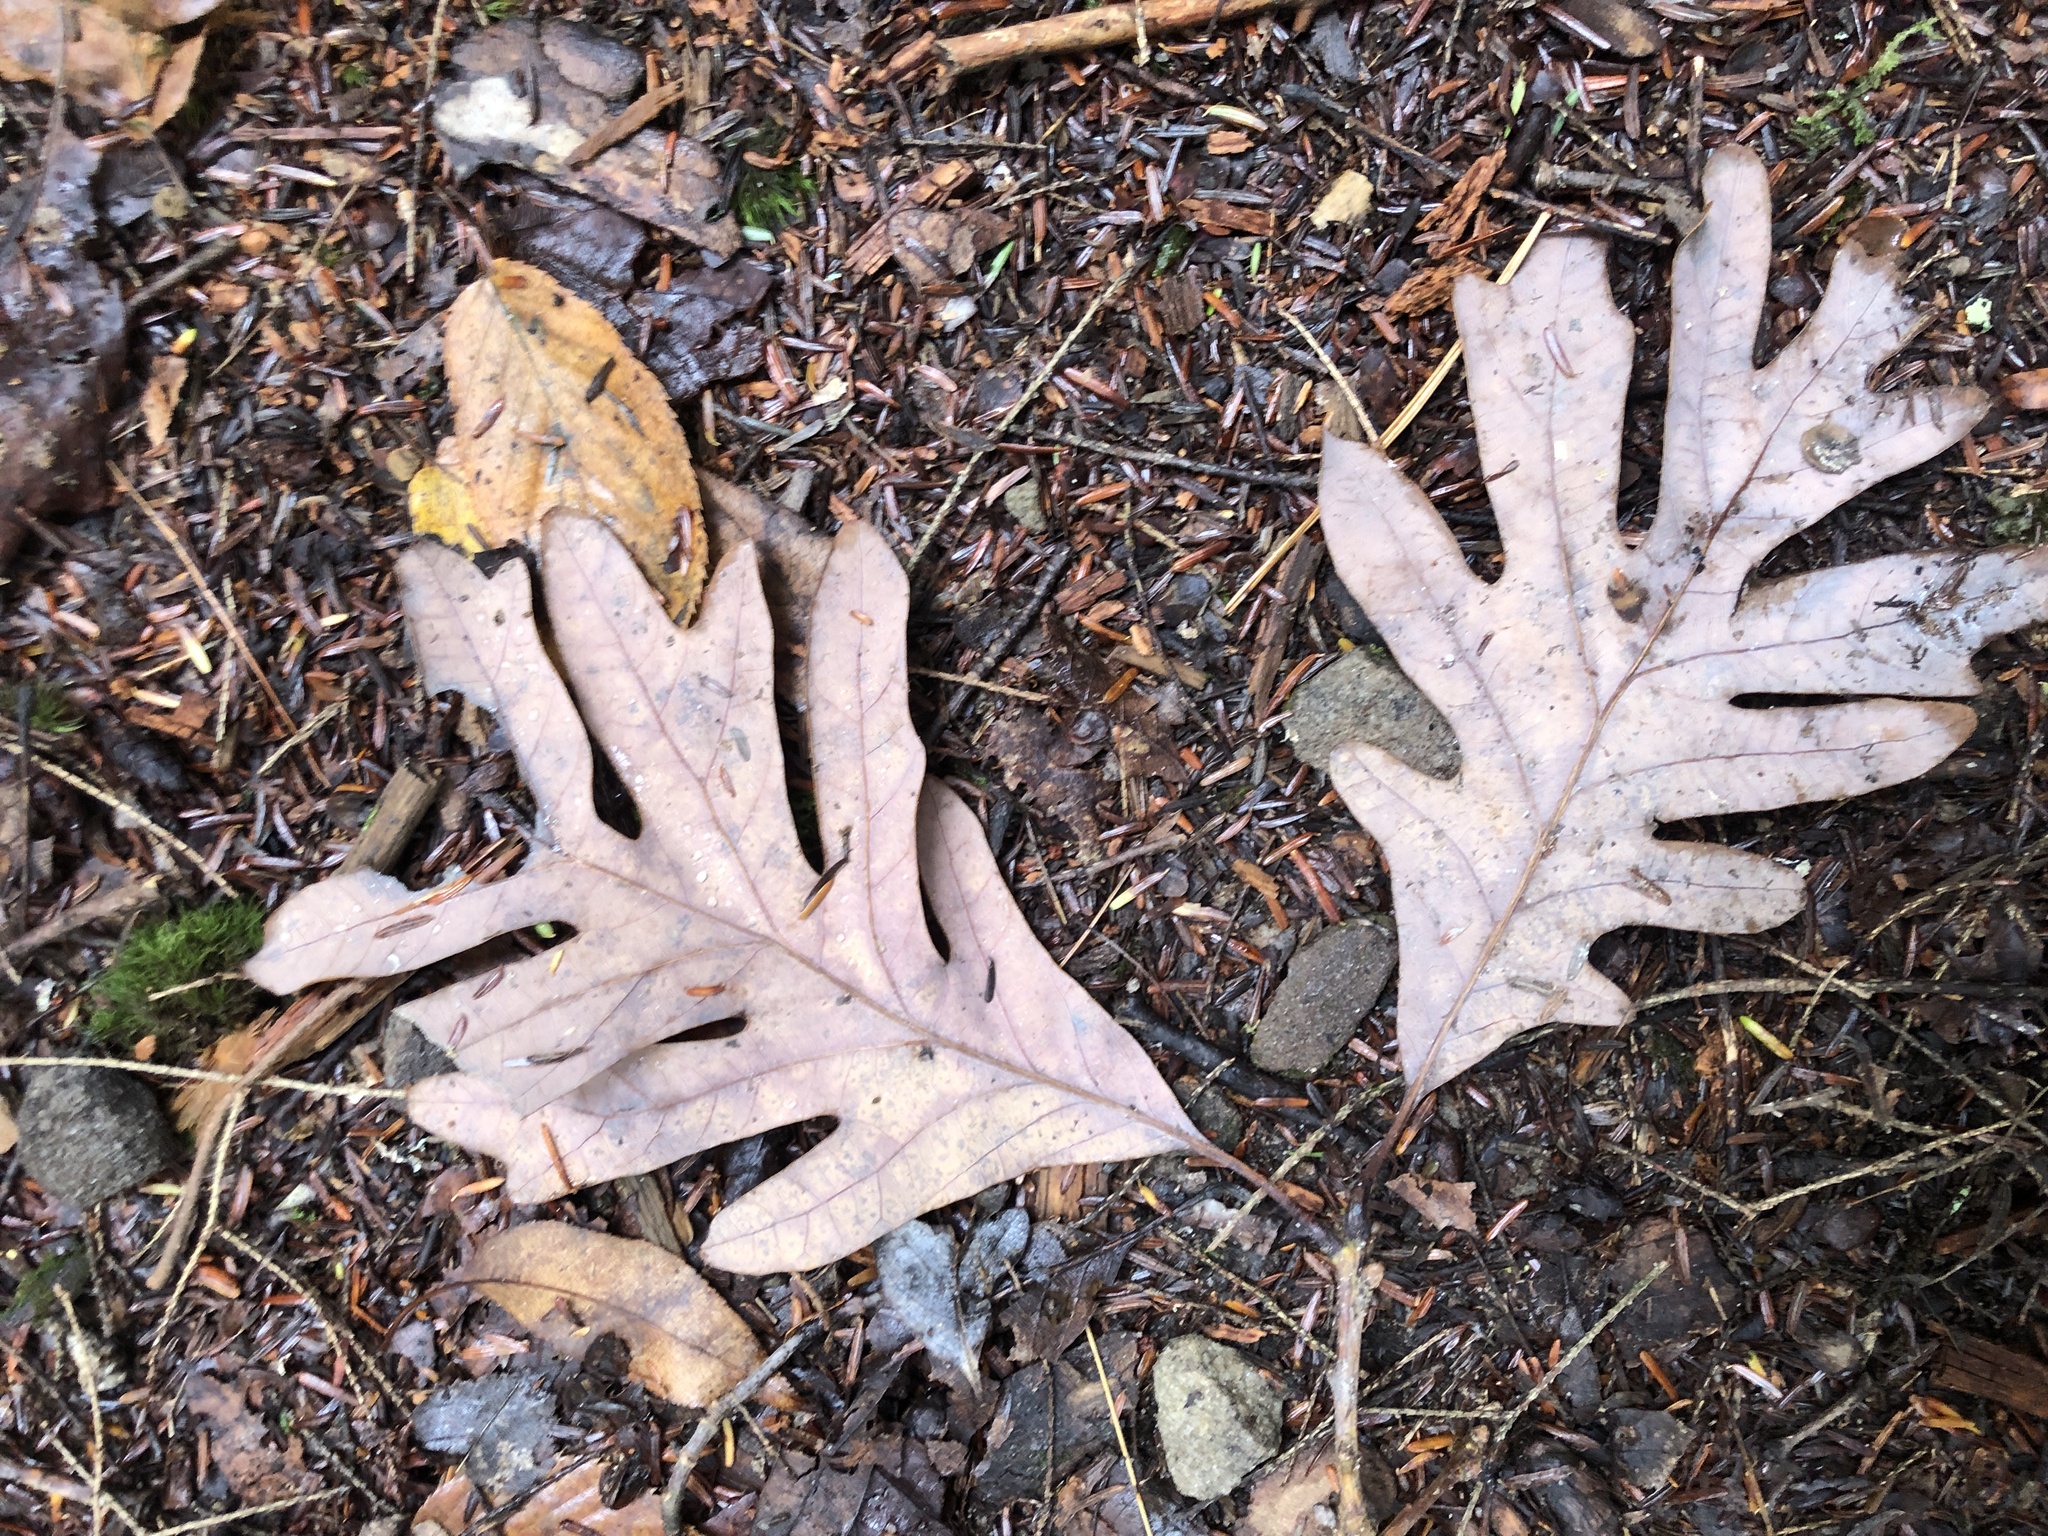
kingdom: Plantae
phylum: Tracheophyta
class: Magnoliopsida
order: Fagales
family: Fagaceae
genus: Quercus
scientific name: Quercus alba
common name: White oak
